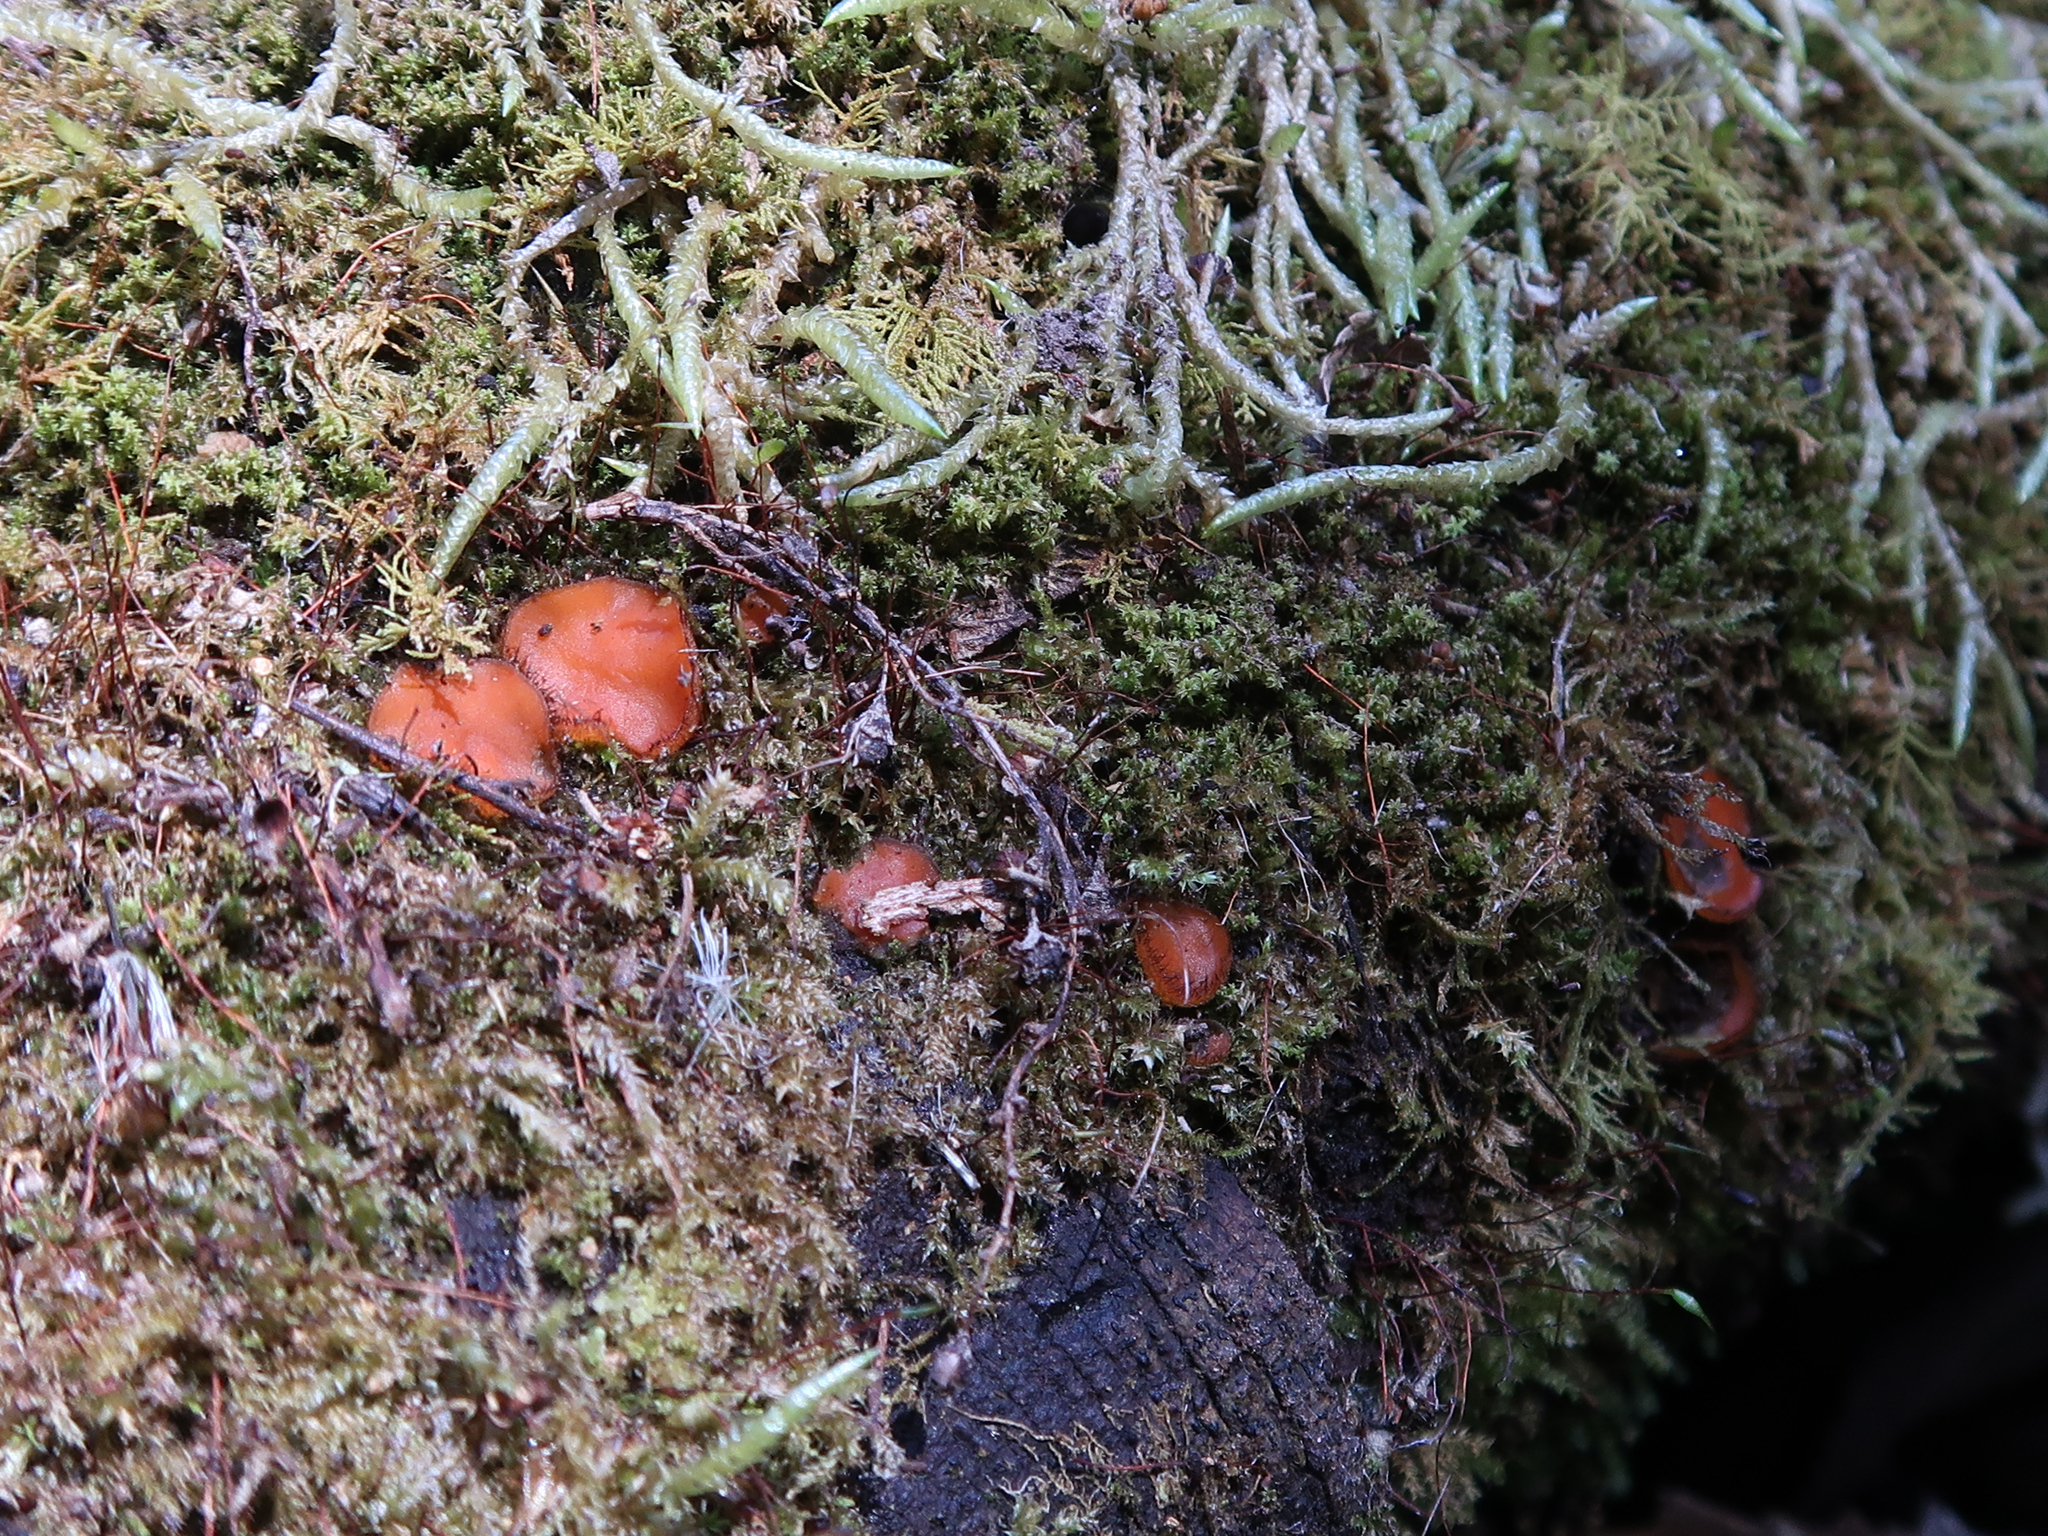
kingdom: Fungi
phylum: Ascomycota
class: Pezizomycetes
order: Pezizales
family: Pyronemataceae
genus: Scutellinia
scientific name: Scutellinia
